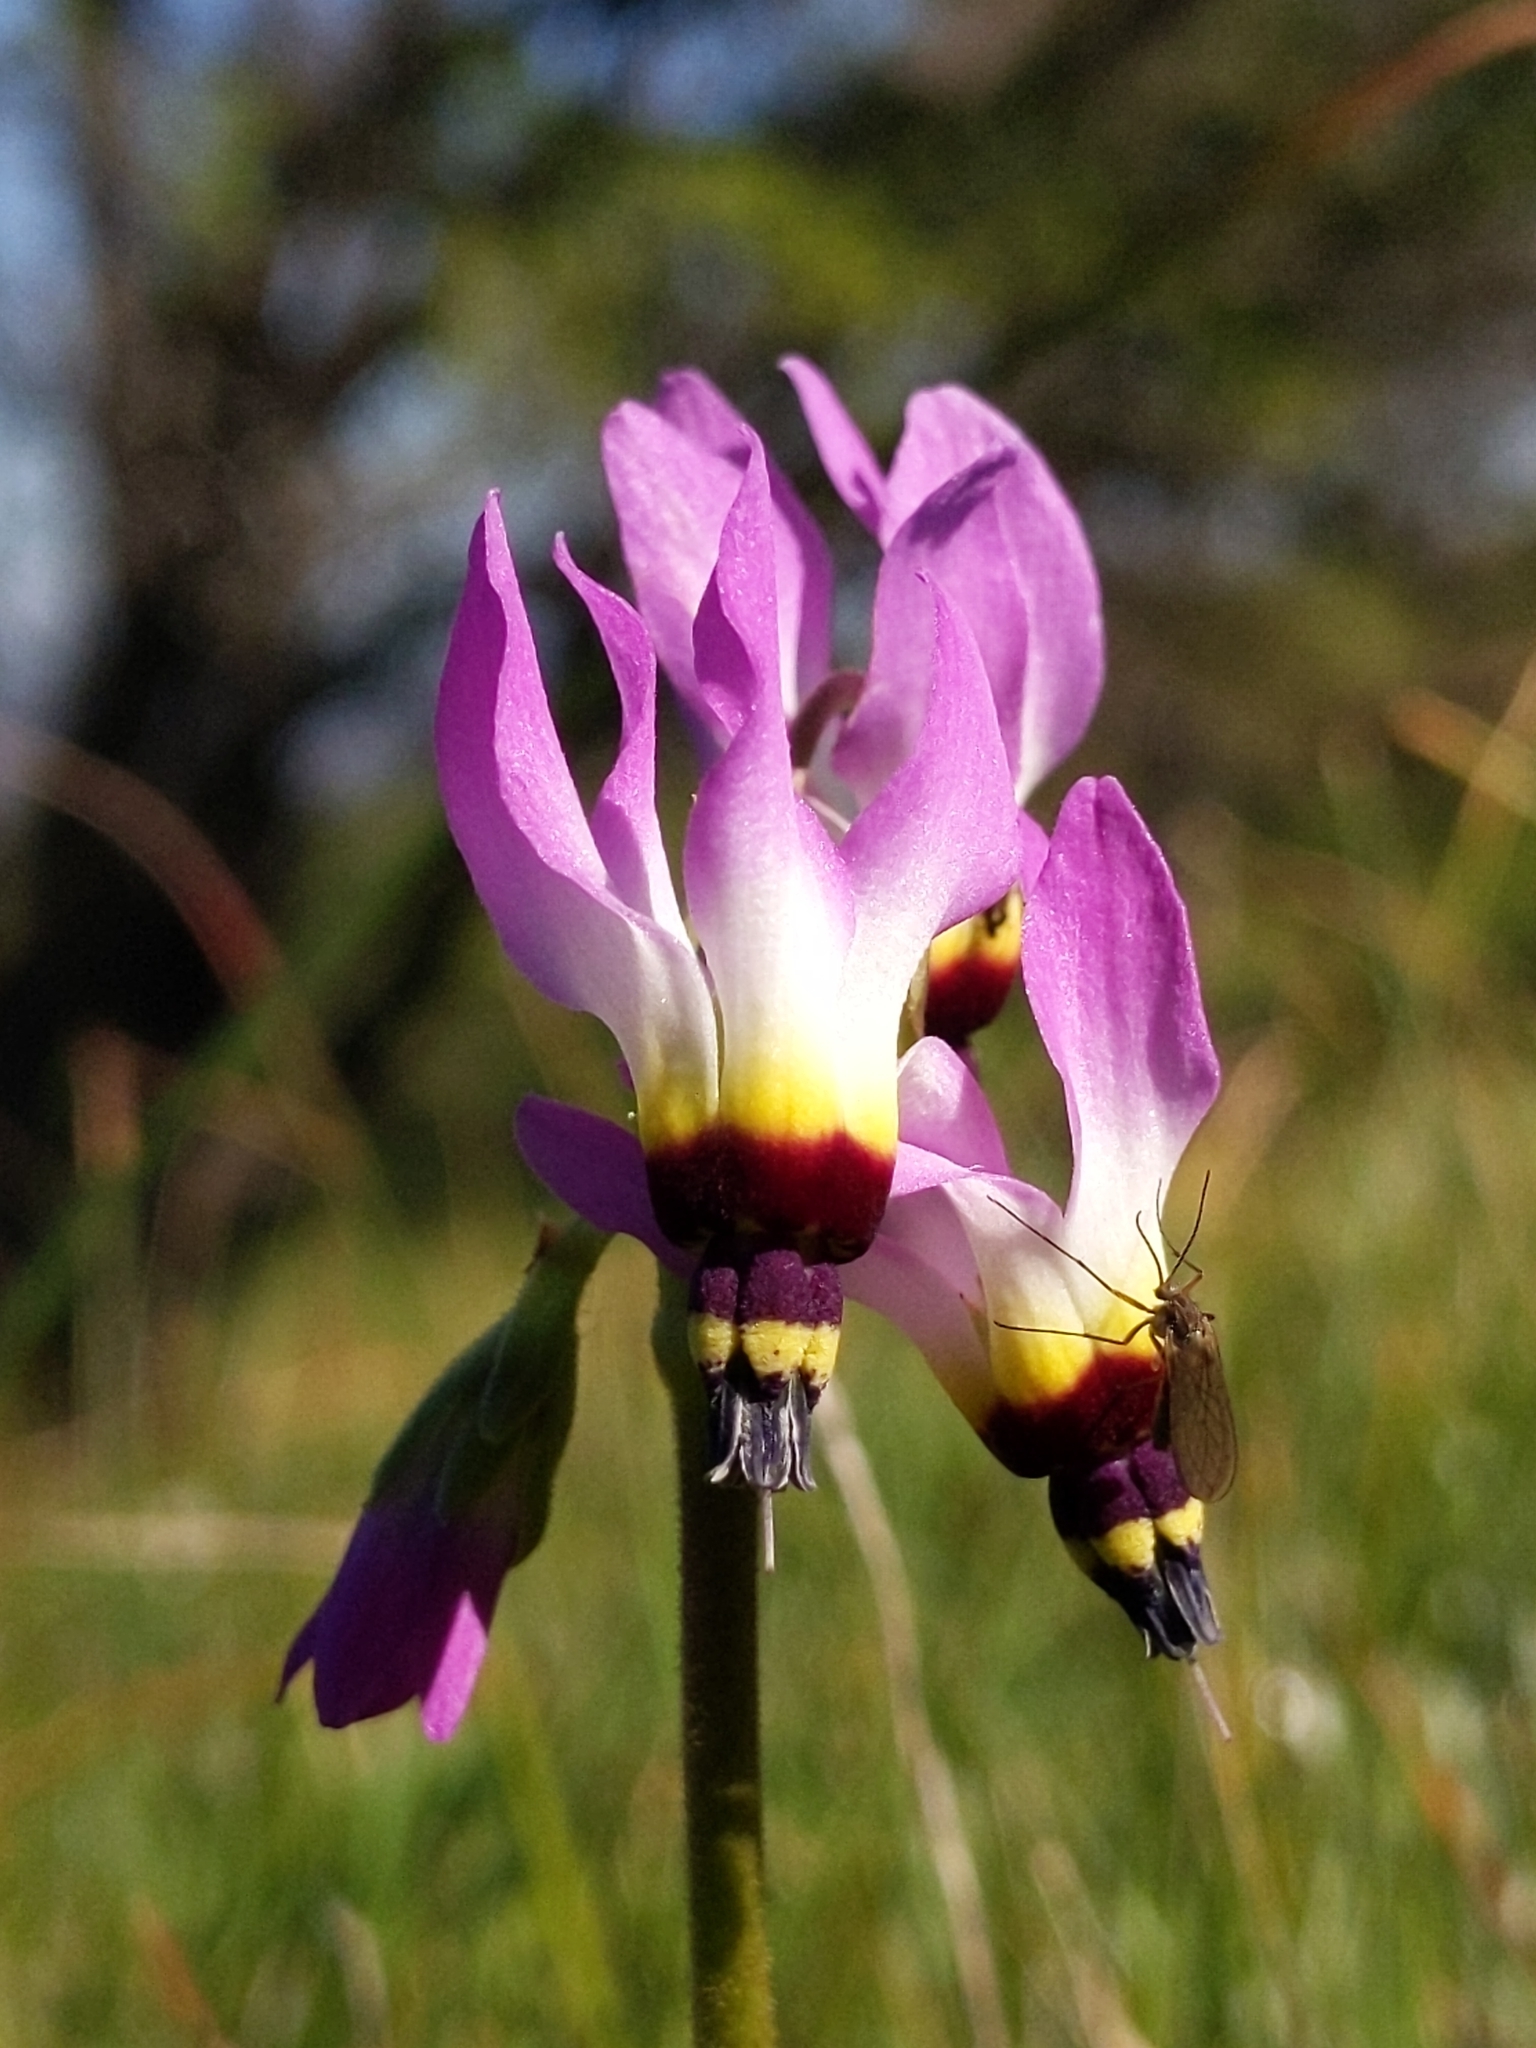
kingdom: Plantae
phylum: Tracheophyta
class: Magnoliopsida
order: Ericales
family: Primulaceae
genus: Dodecatheon
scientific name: Dodecatheon clevelandii
